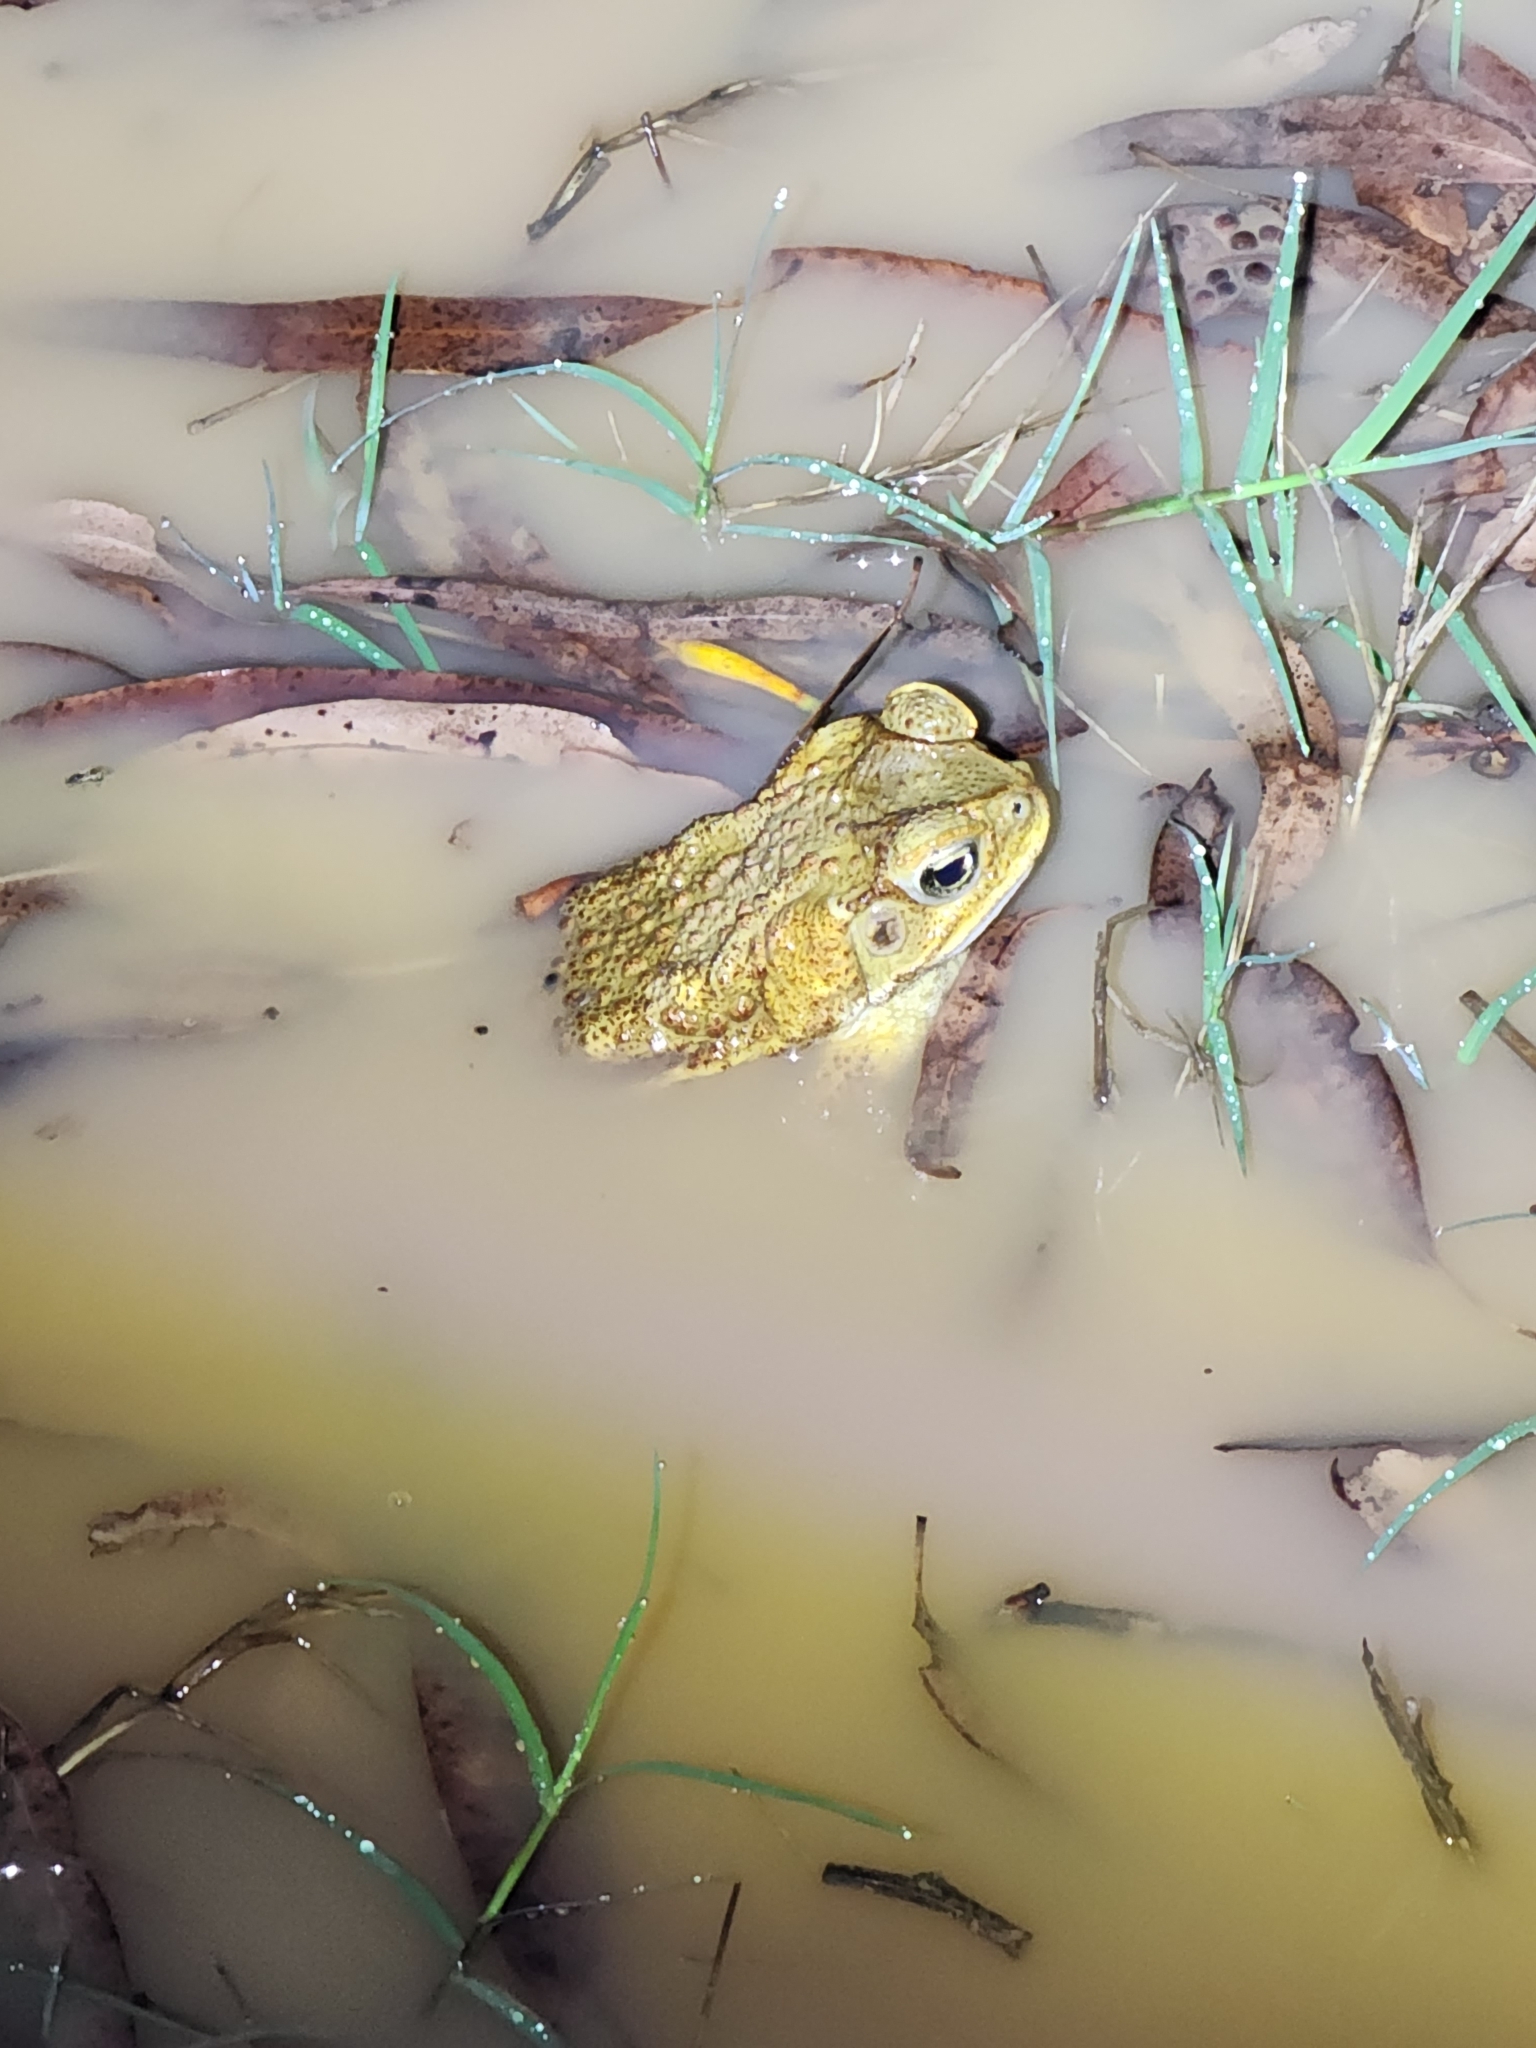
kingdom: Animalia
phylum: Chordata
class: Amphibia
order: Anura
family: Bufonidae
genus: Rhinella
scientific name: Rhinella marina
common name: Cane toad
